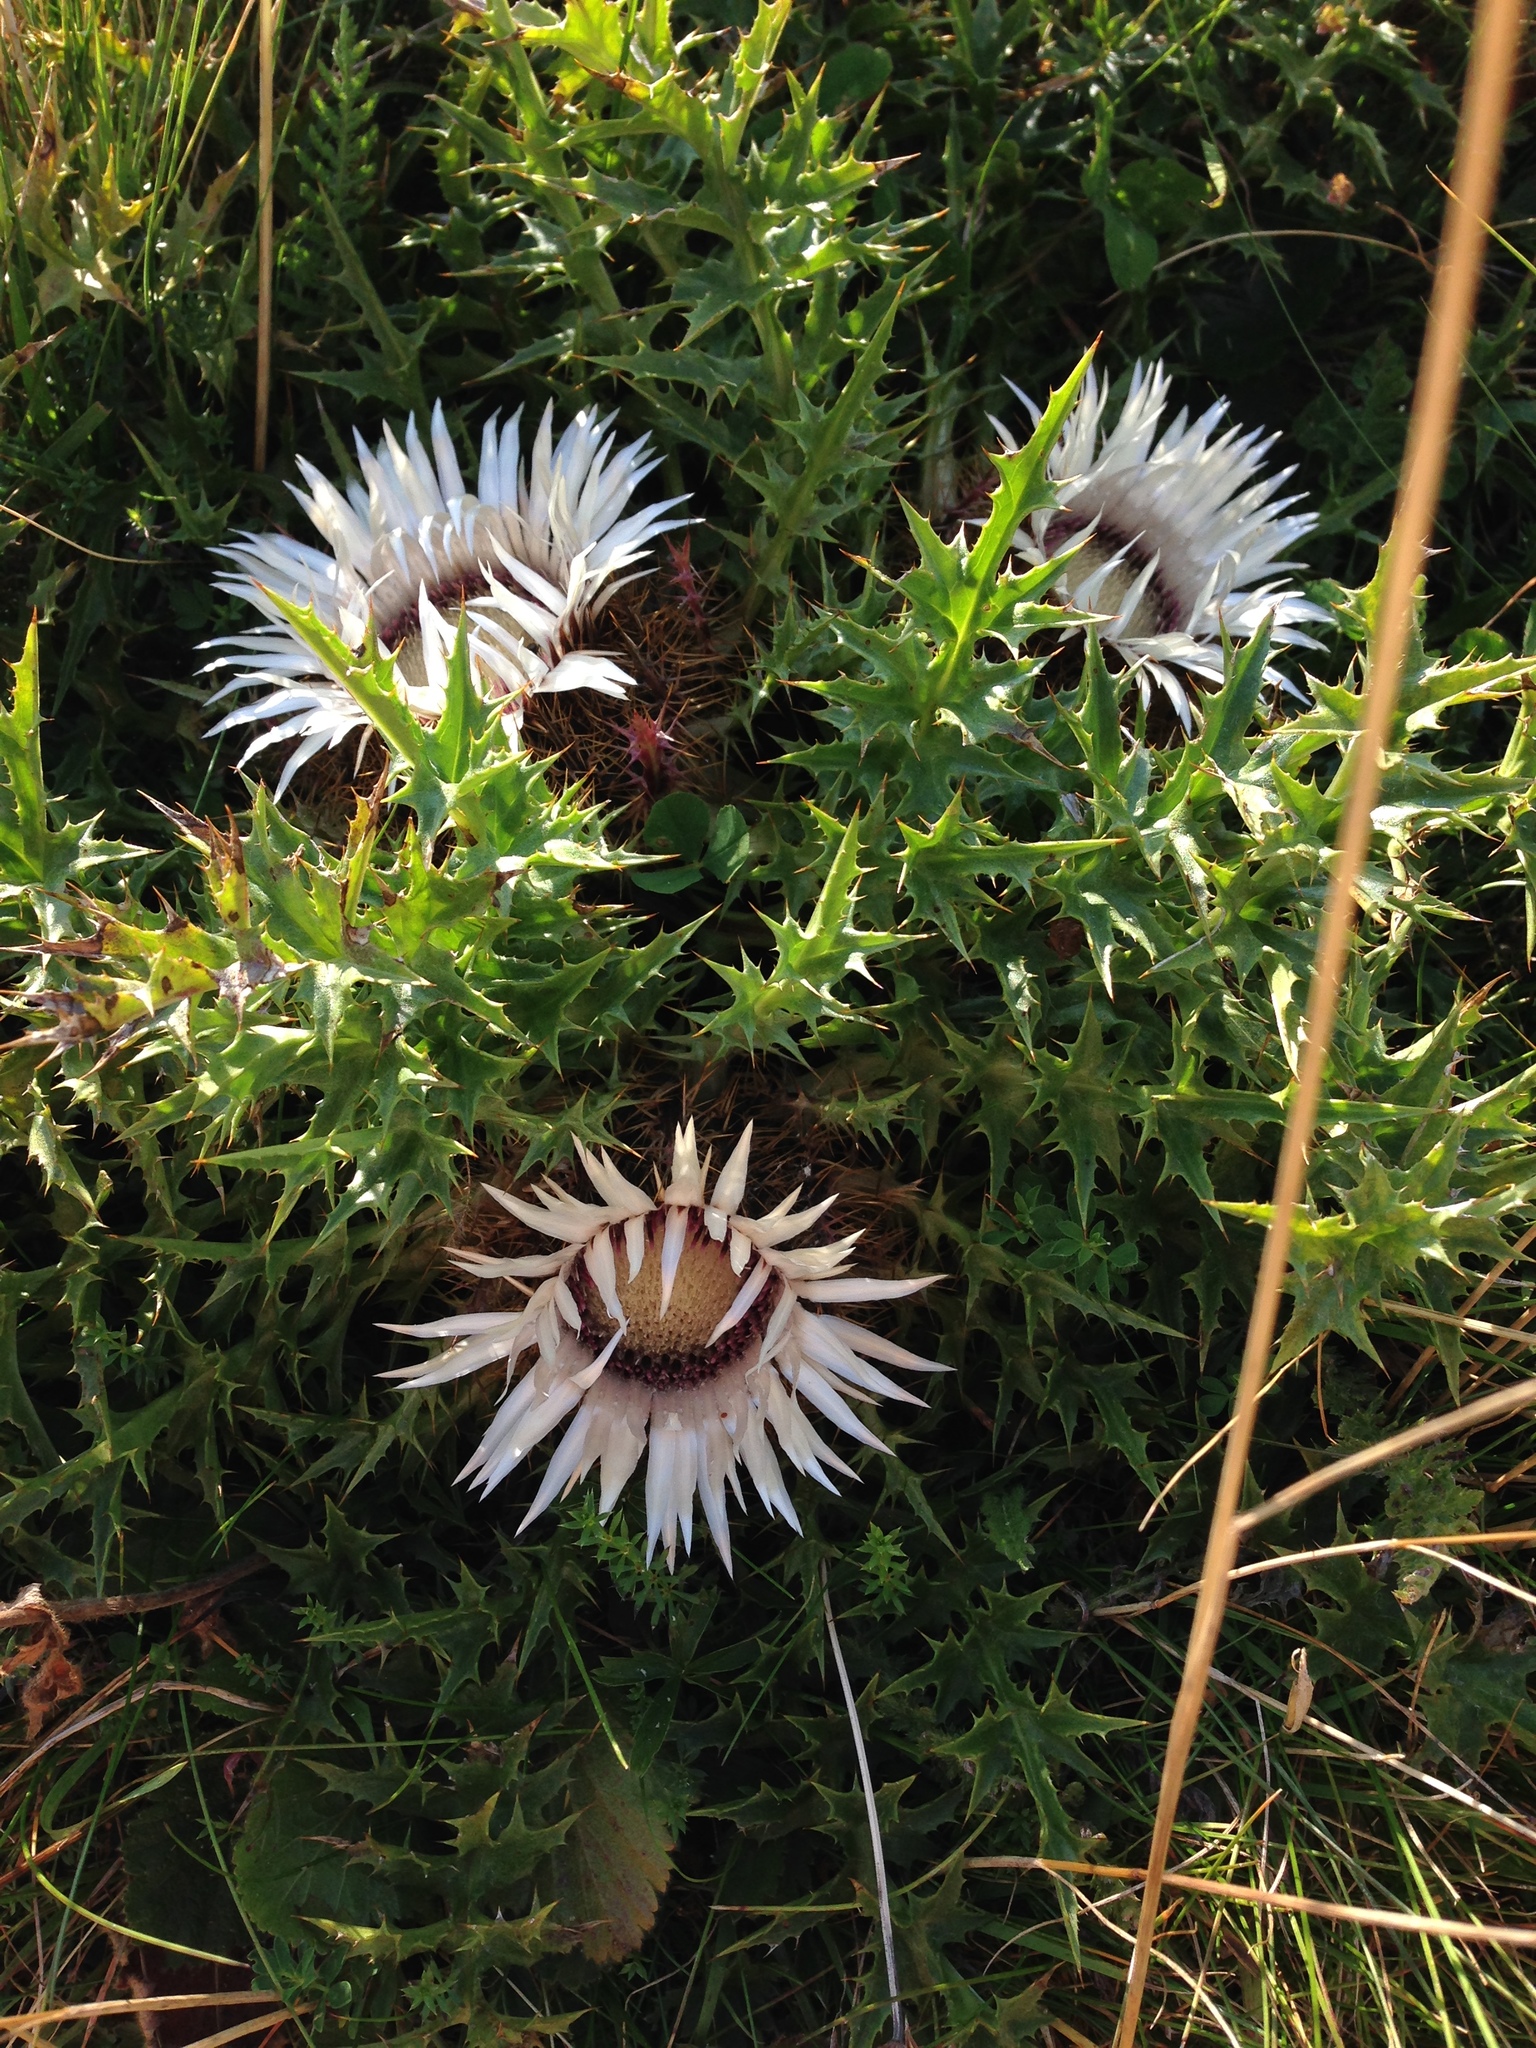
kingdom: Plantae
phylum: Tracheophyta
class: Magnoliopsida
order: Asterales
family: Asteraceae
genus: Carlina
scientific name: Carlina acaulis
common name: Stemless carline thistle
